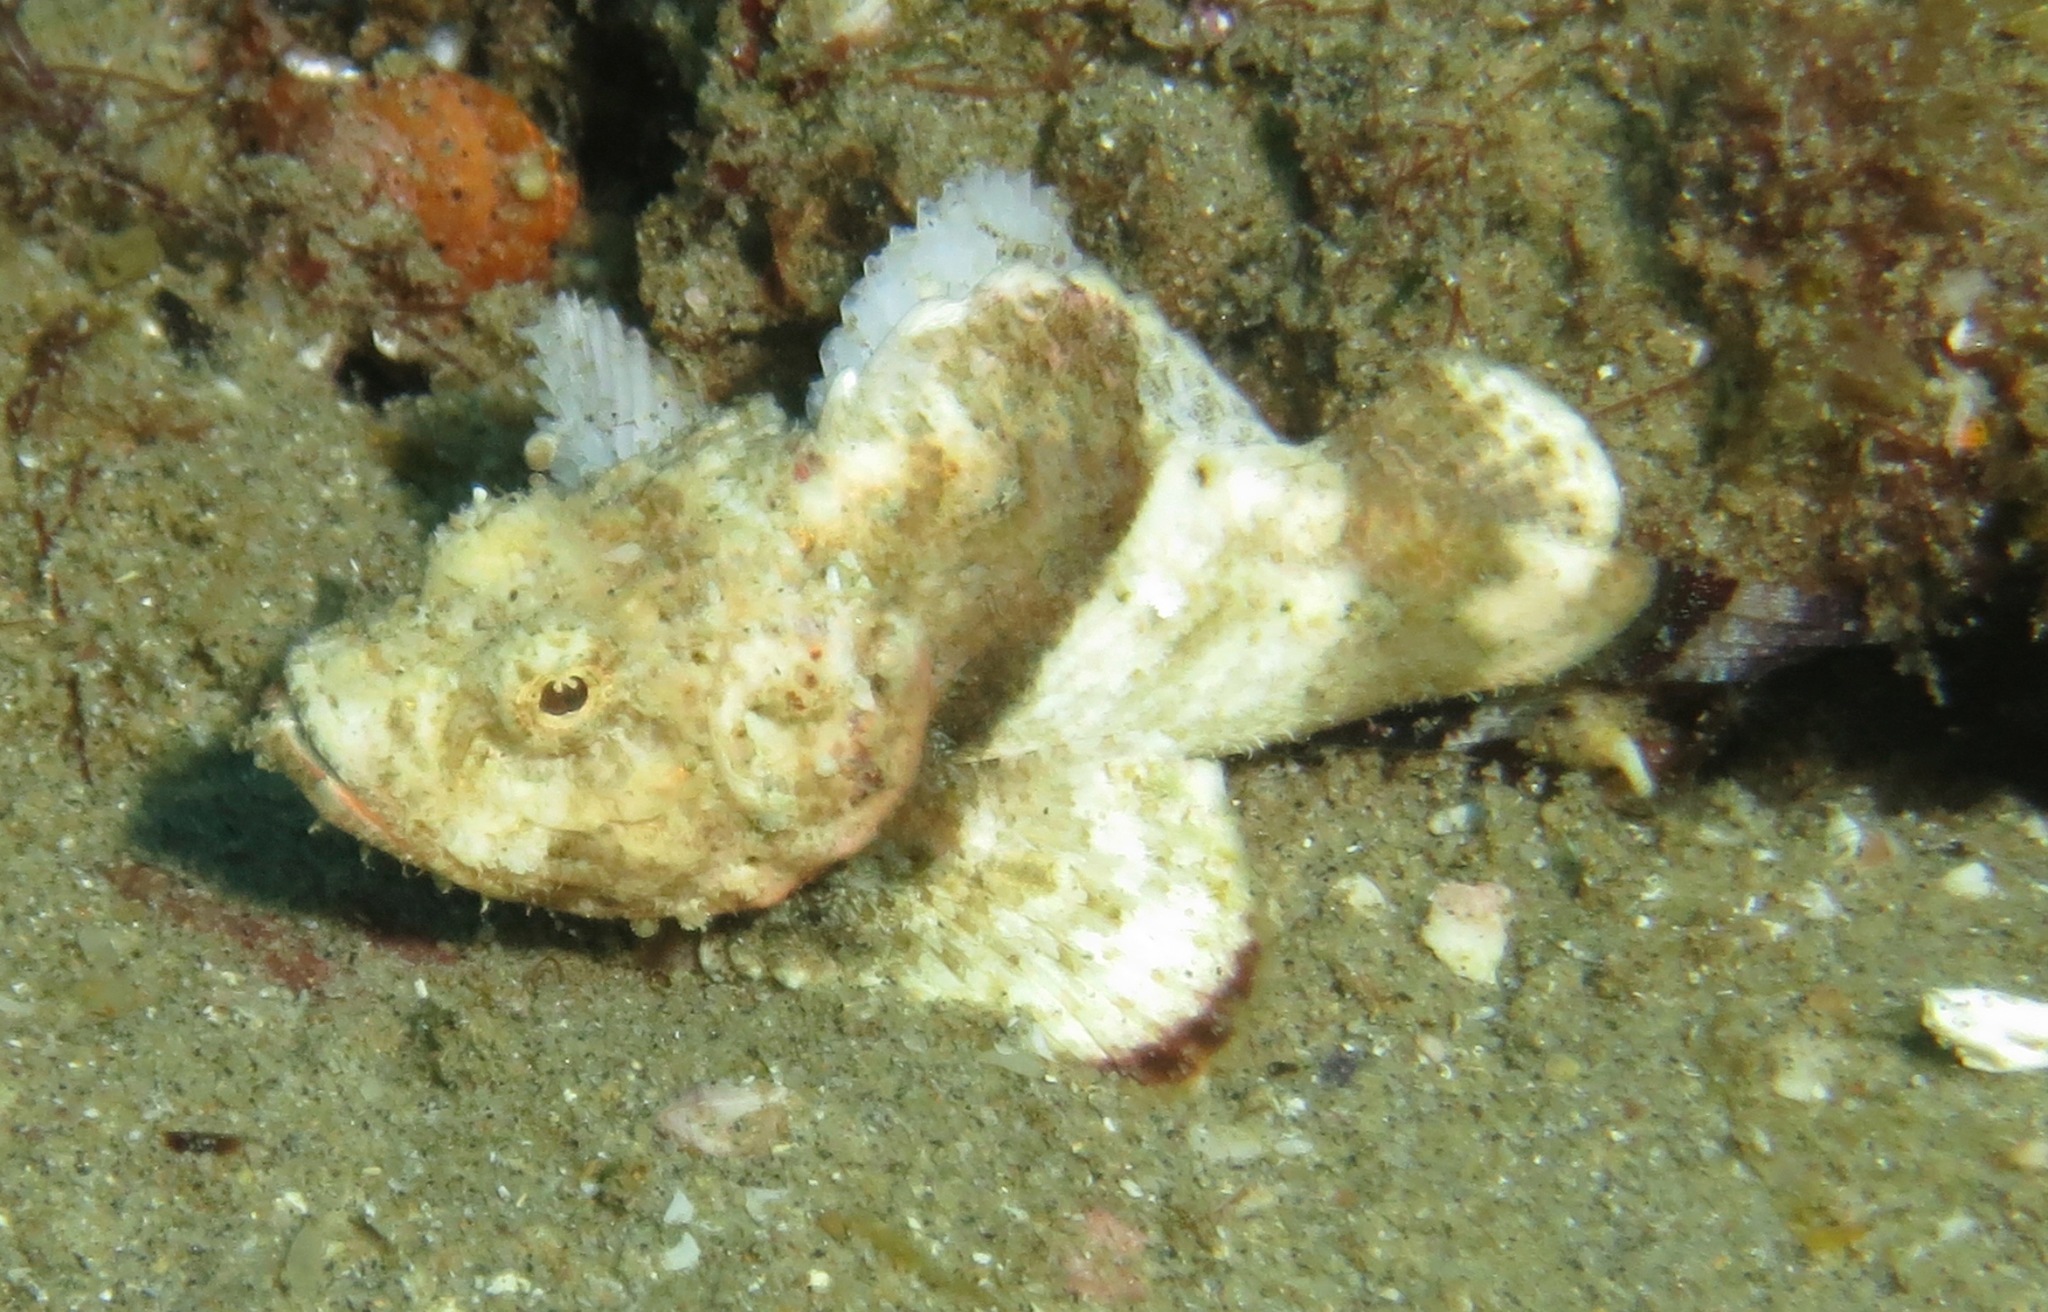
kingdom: Animalia
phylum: Chordata
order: Scorpaeniformes
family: Scorpaenidae
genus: Scorpaenopsis
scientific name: Scorpaenopsis diabolus
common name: False stonefish
